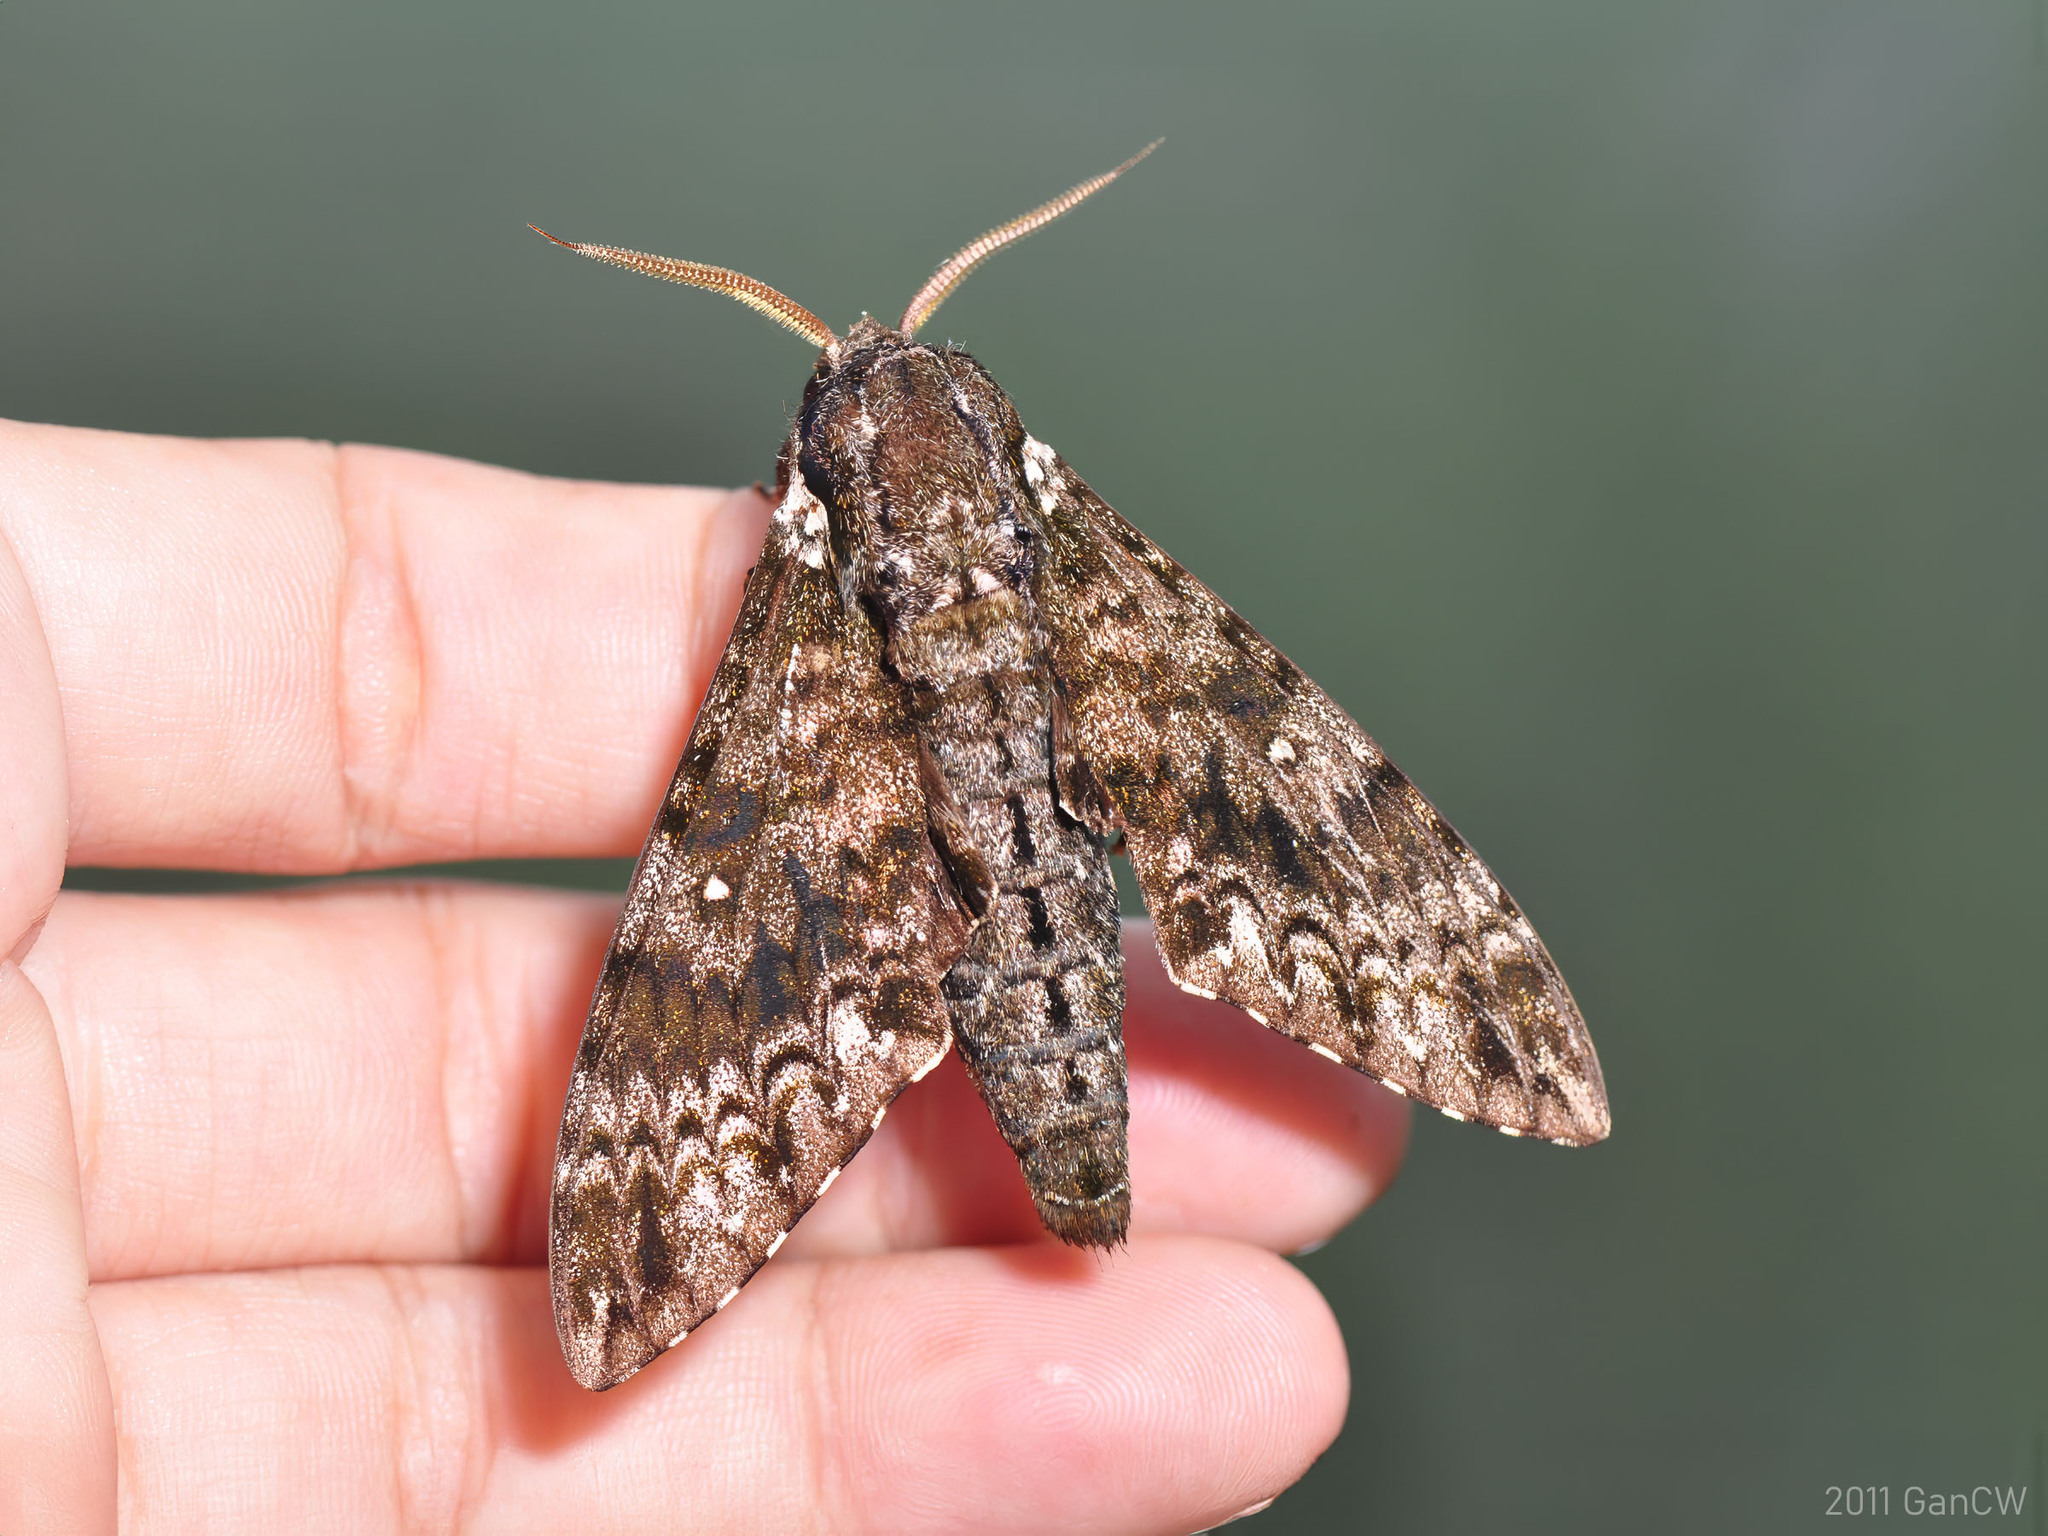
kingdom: Animalia
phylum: Arthropoda
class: Insecta
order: Lepidoptera
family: Sphingidae
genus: Dolbina
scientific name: Dolbina borneensis
